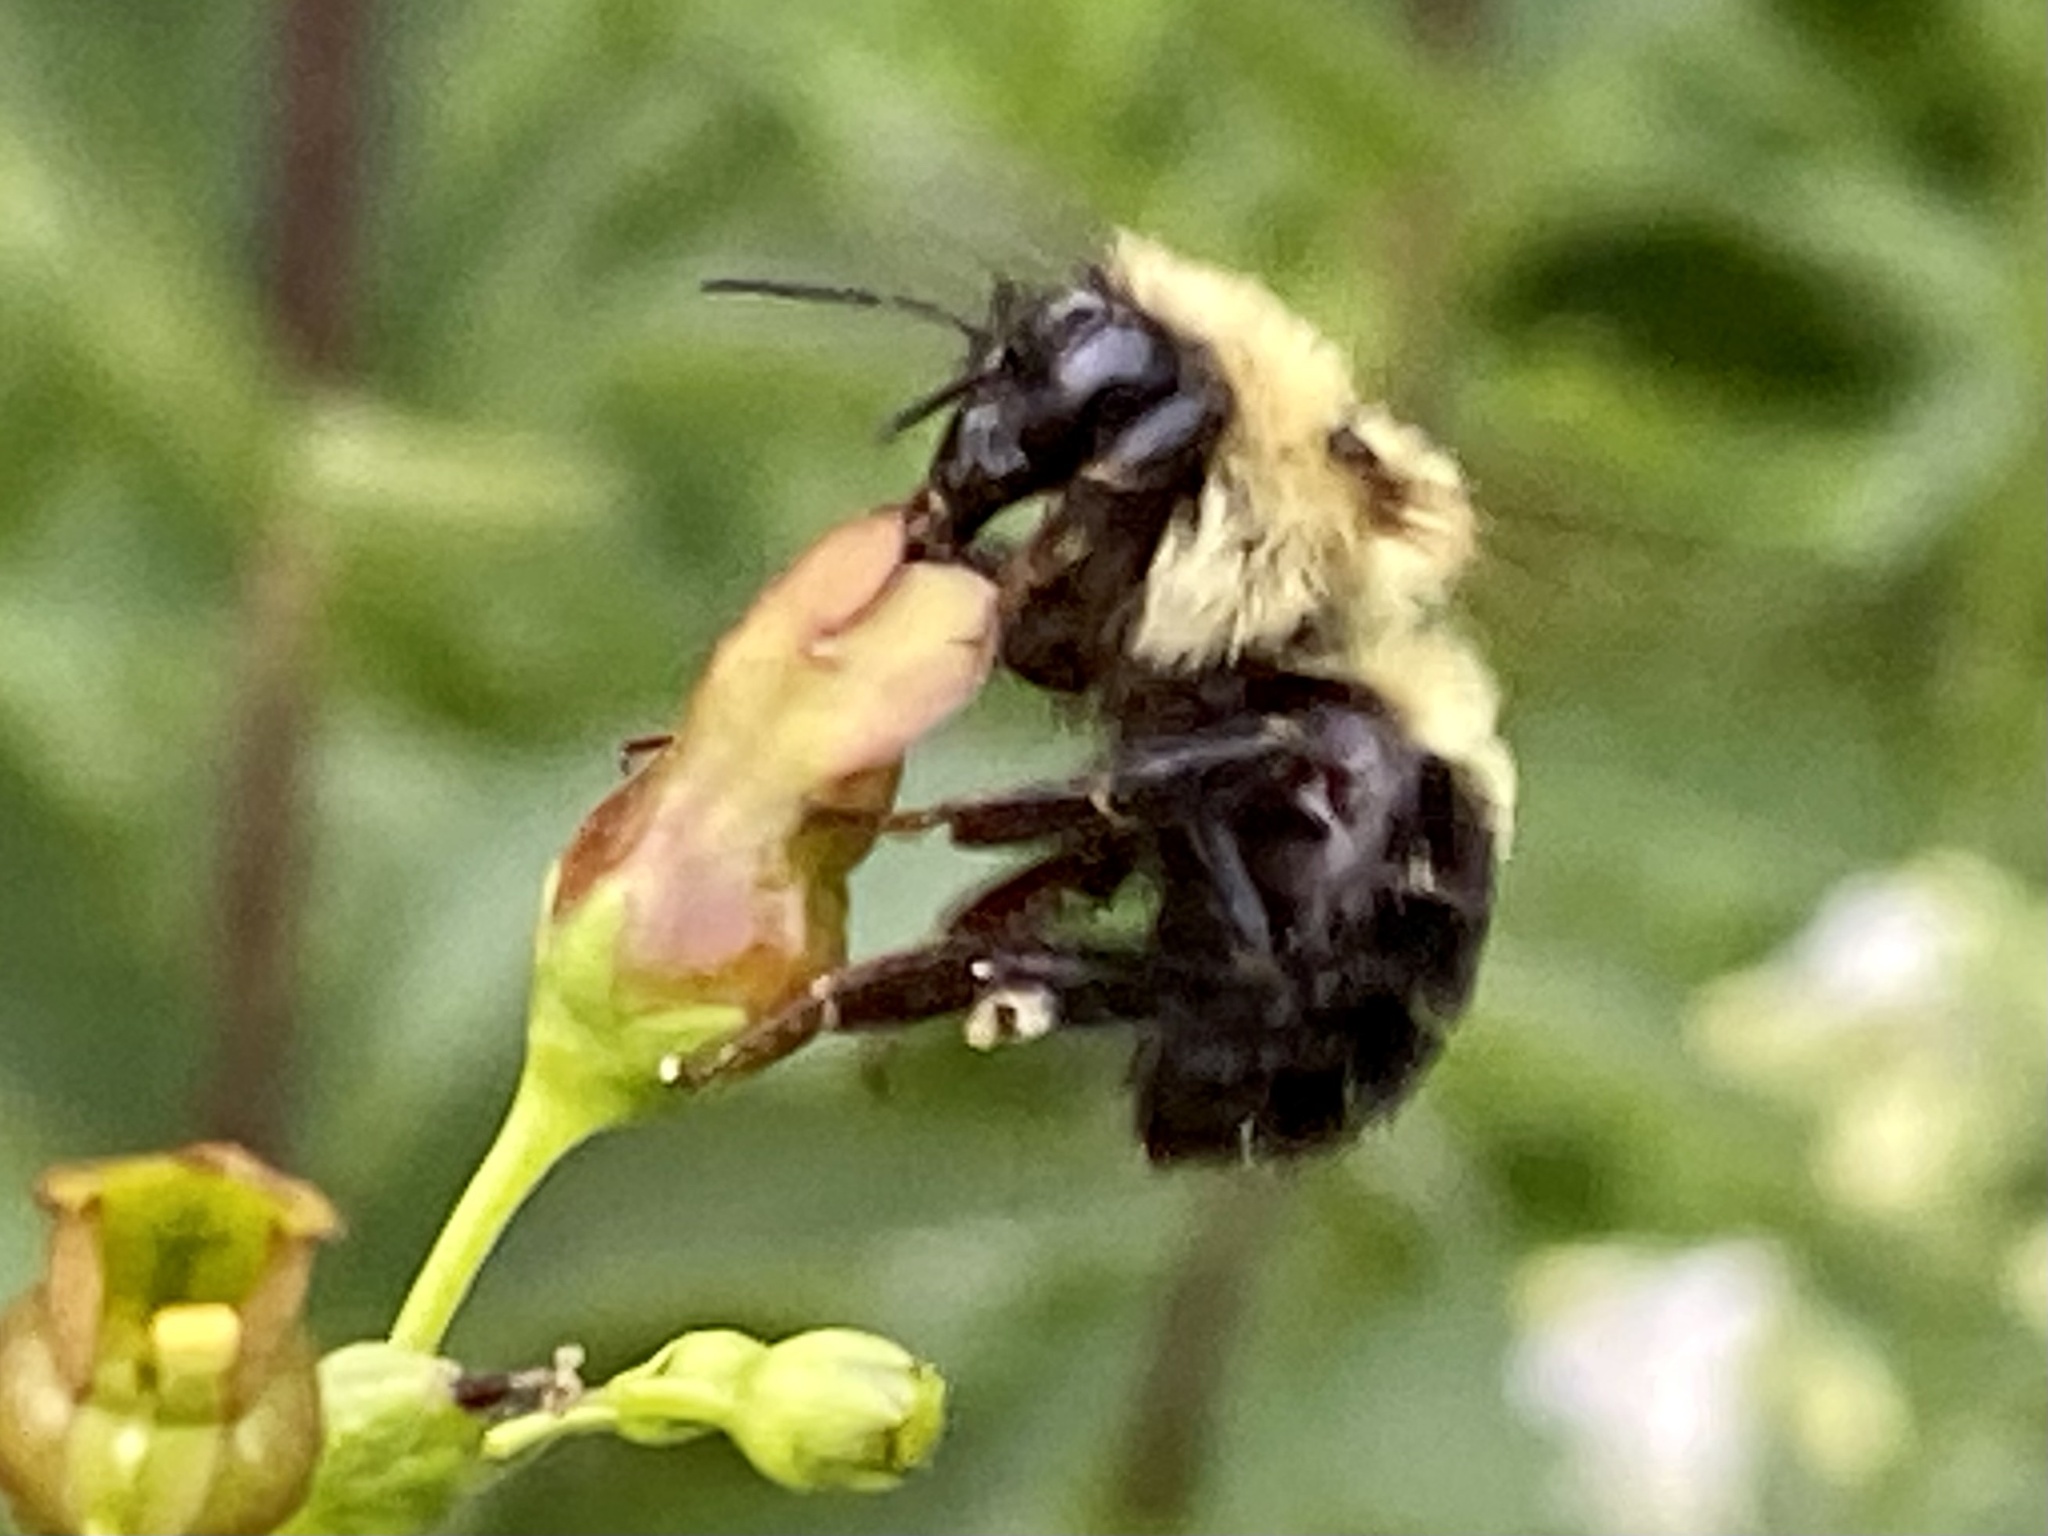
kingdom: Animalia
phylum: Arthropoda
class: Insecta
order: Hymenoptera
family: Apidae
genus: Bombus
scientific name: Bombus bimaculatus
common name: Two-spotted bumble bee
